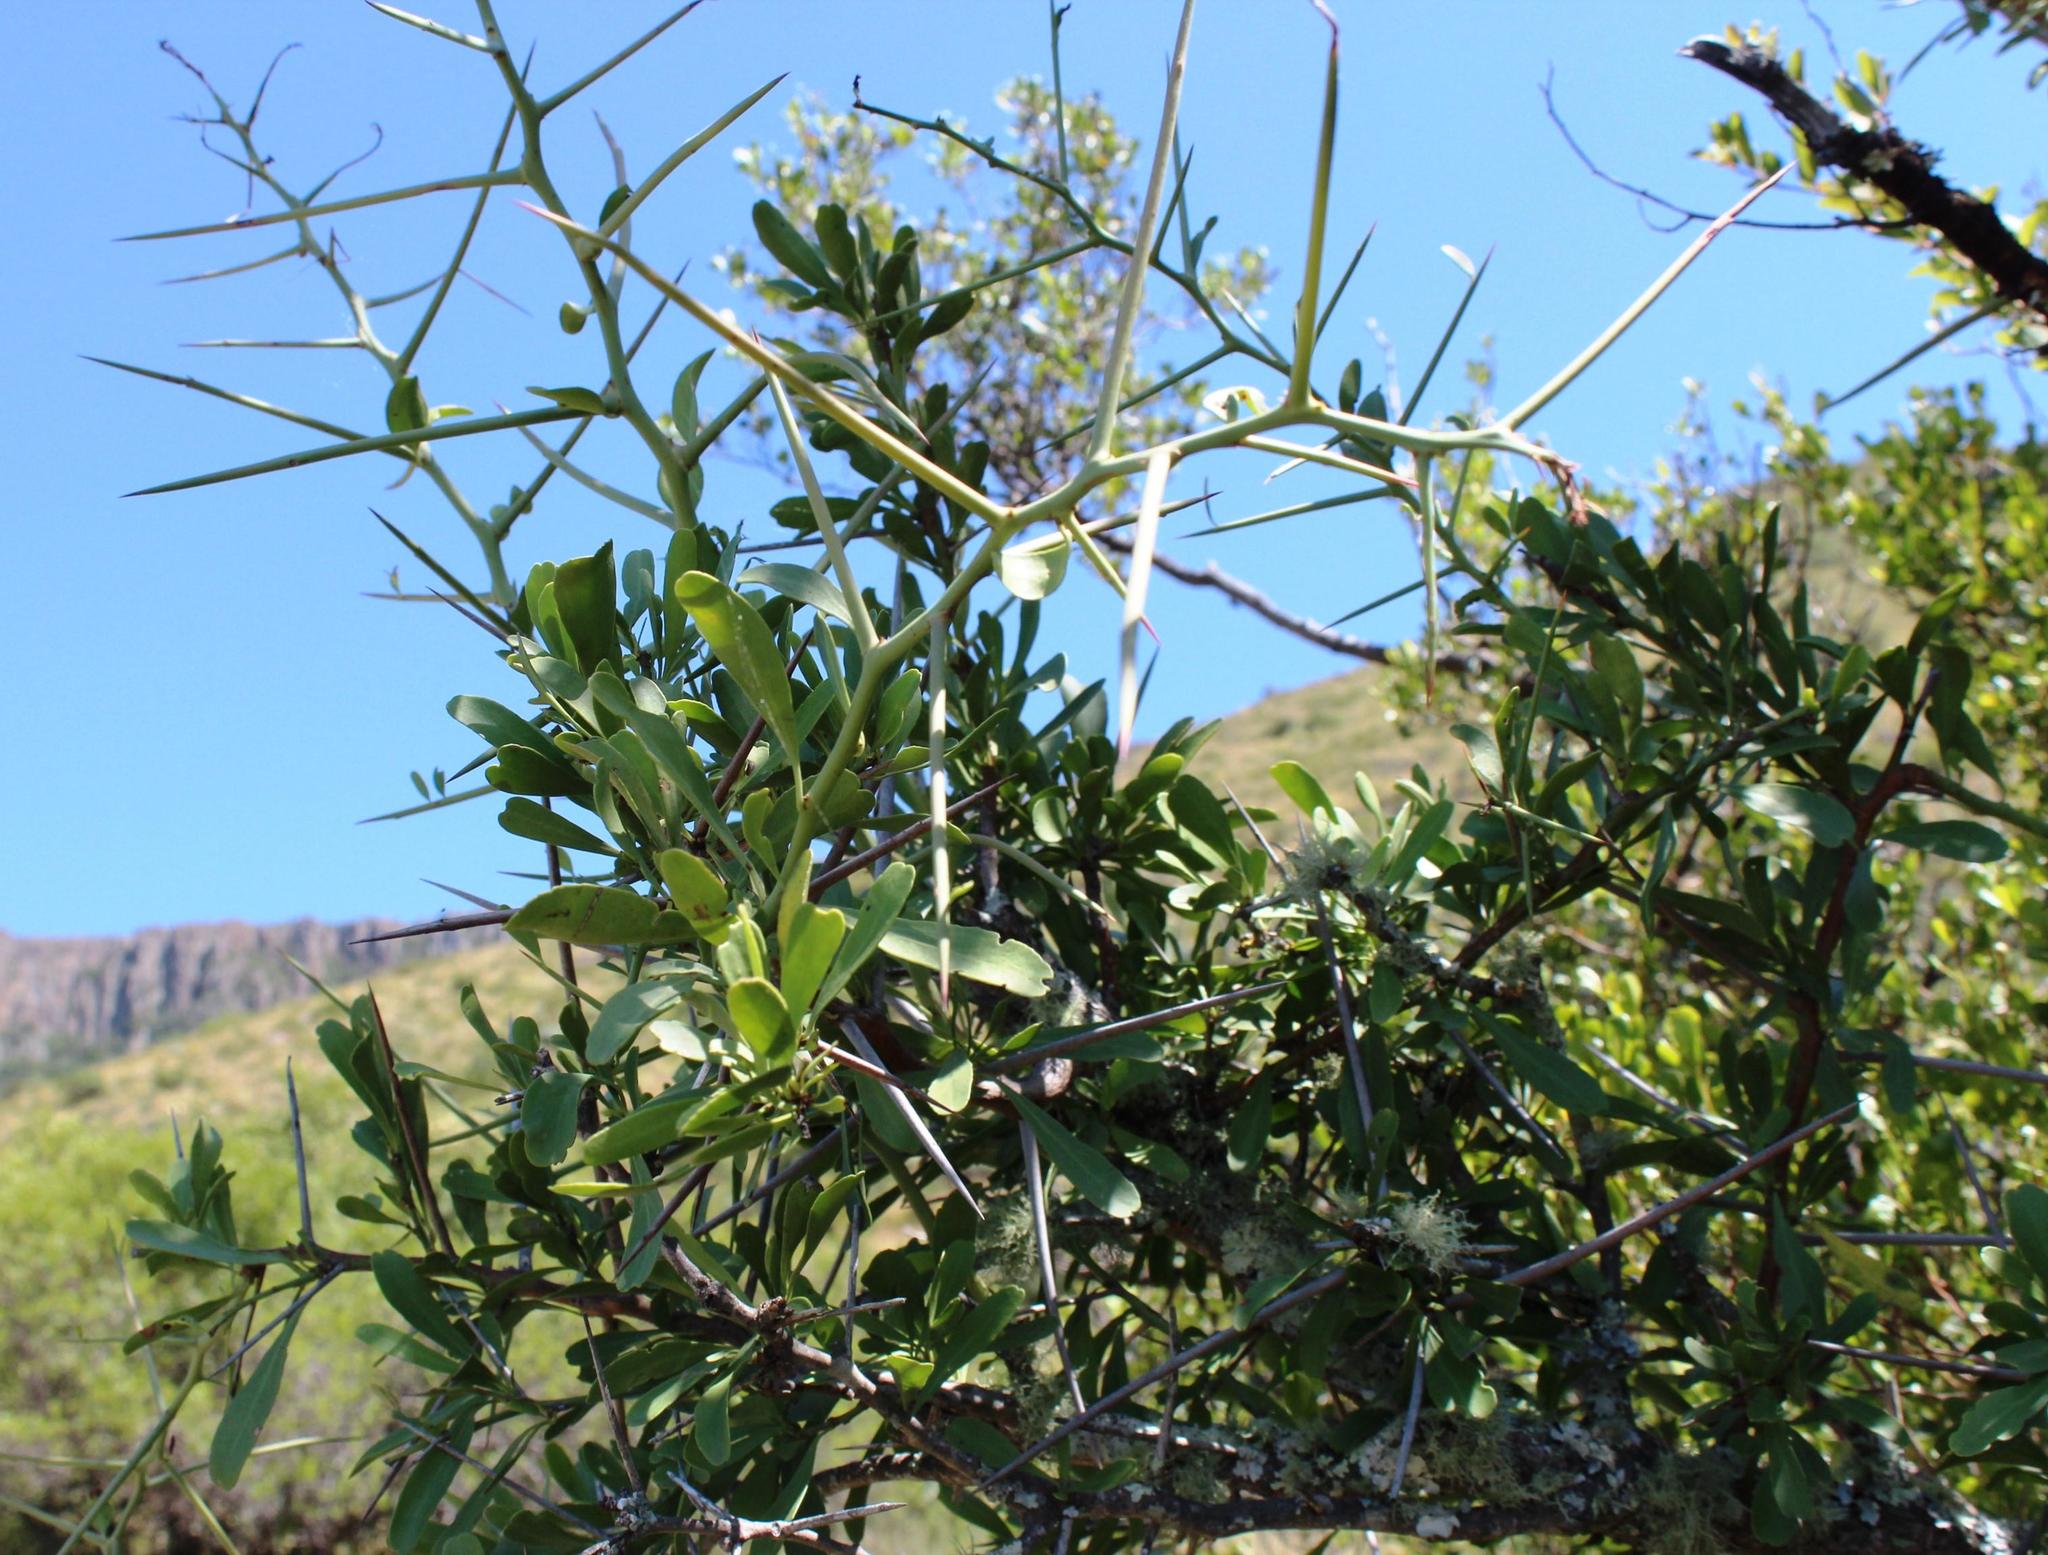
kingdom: Plantae
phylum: Tracheophyta
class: Magnoliopsida
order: Celastrales
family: Celastraceae
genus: Gymnosporia
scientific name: Gymnosporia buxifolia
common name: Common spike-thorn
